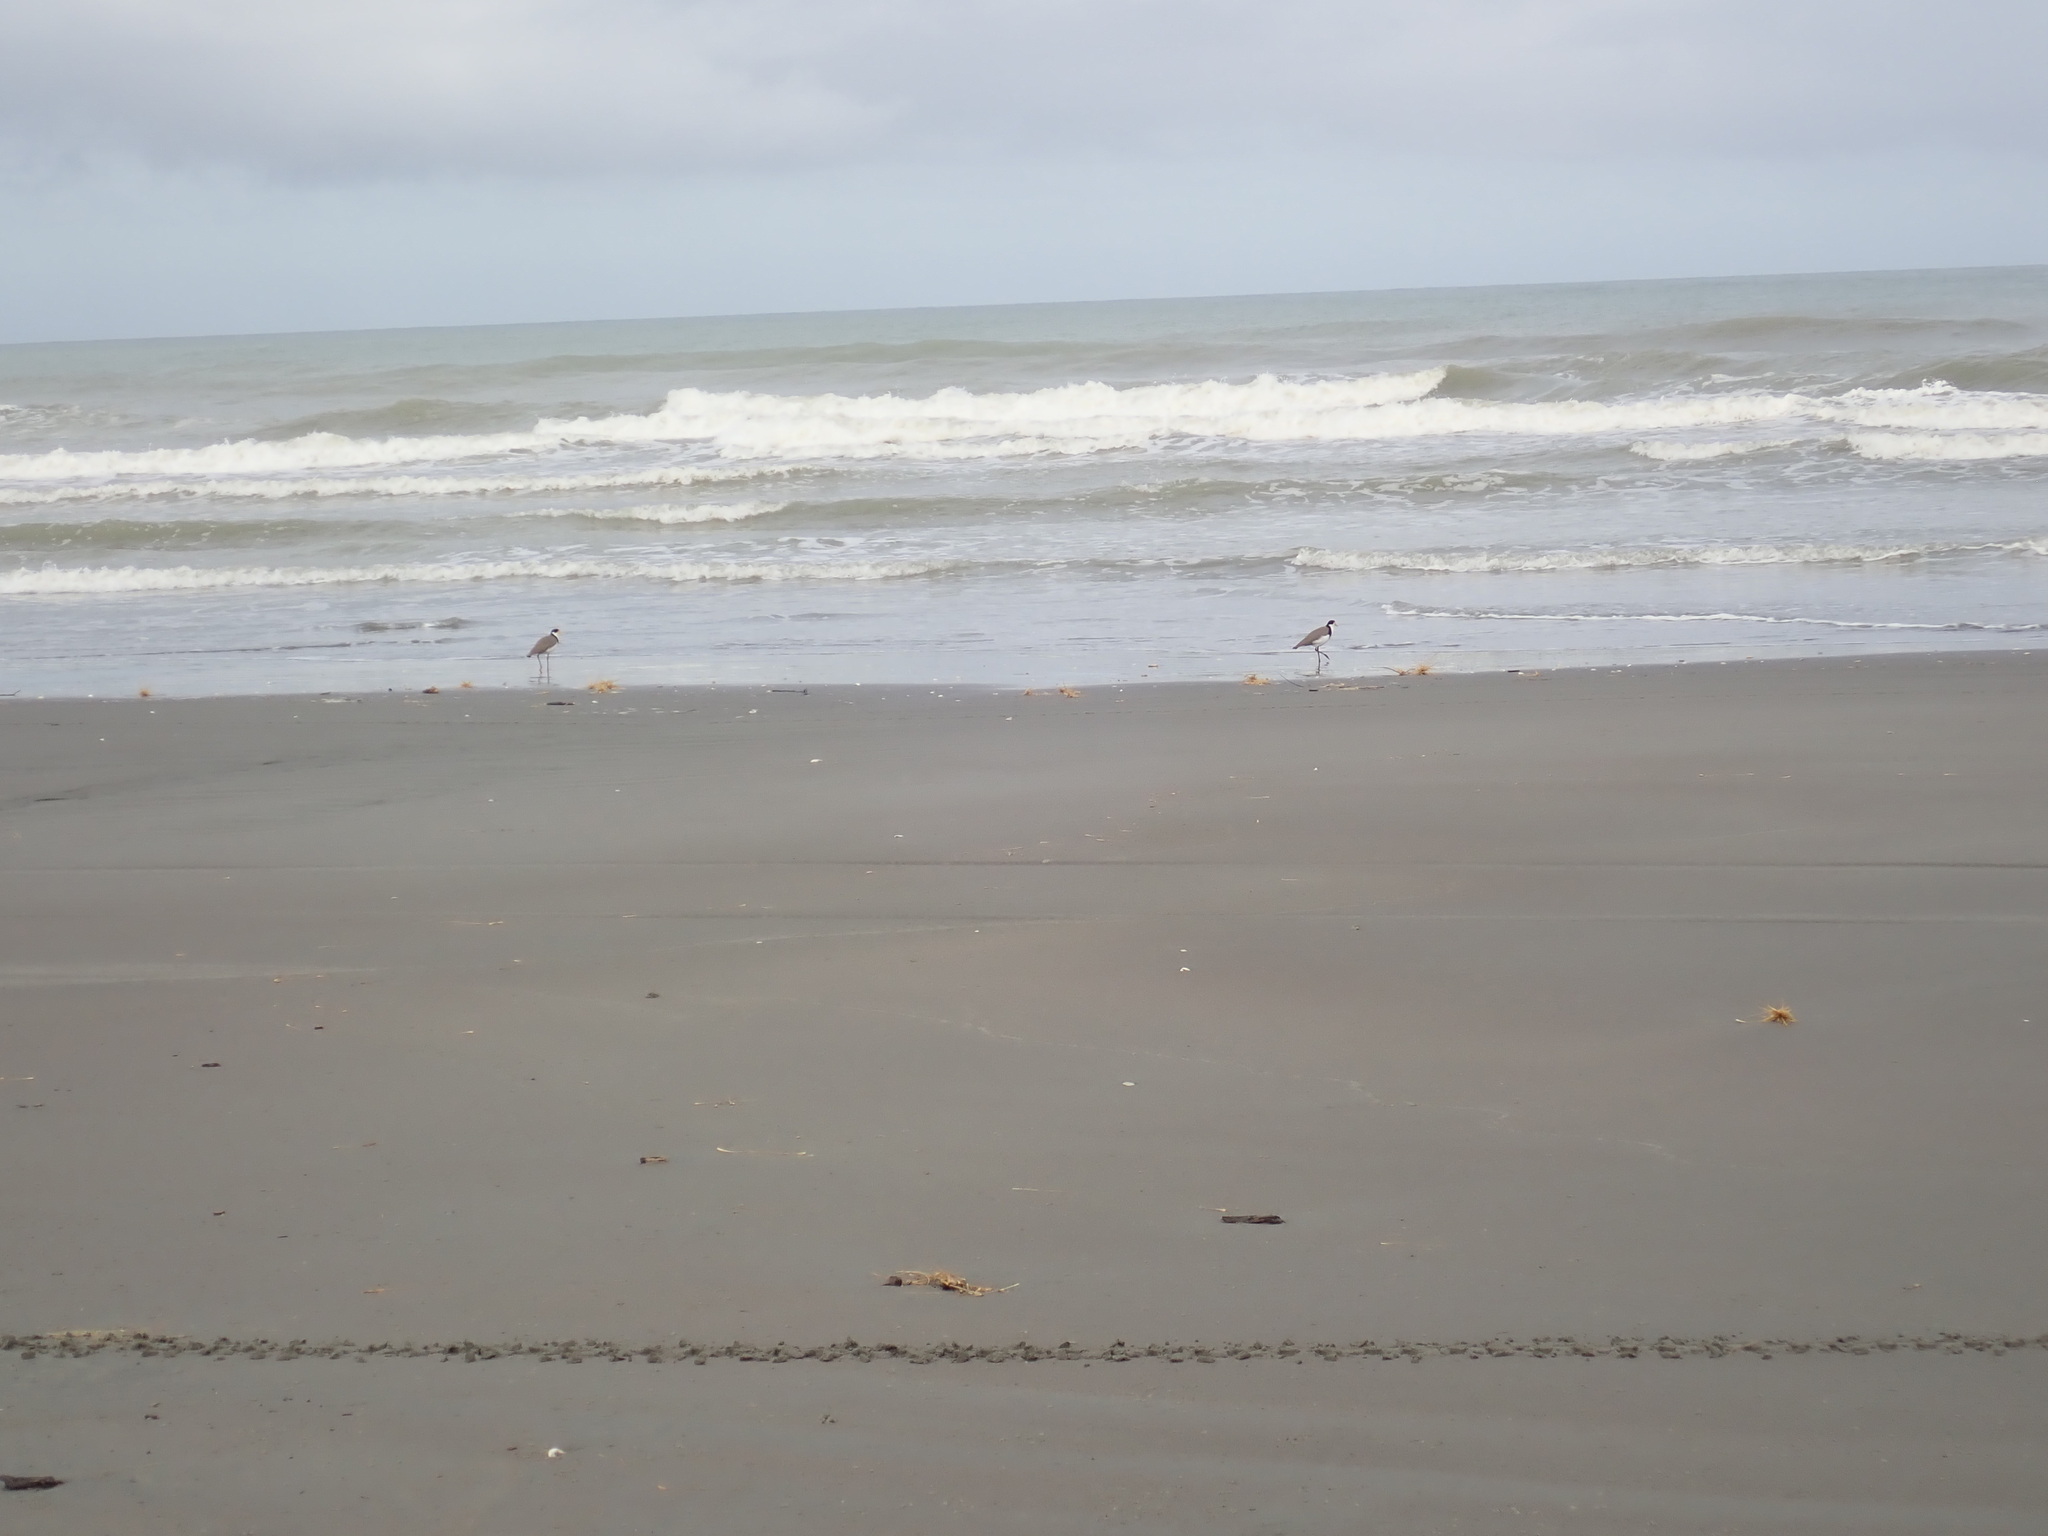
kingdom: Animalia
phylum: Chordata
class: Aves
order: Charadriiformes
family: Charadriidae
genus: Vanellus
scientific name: Vanellus miles
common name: Masked lapwing
